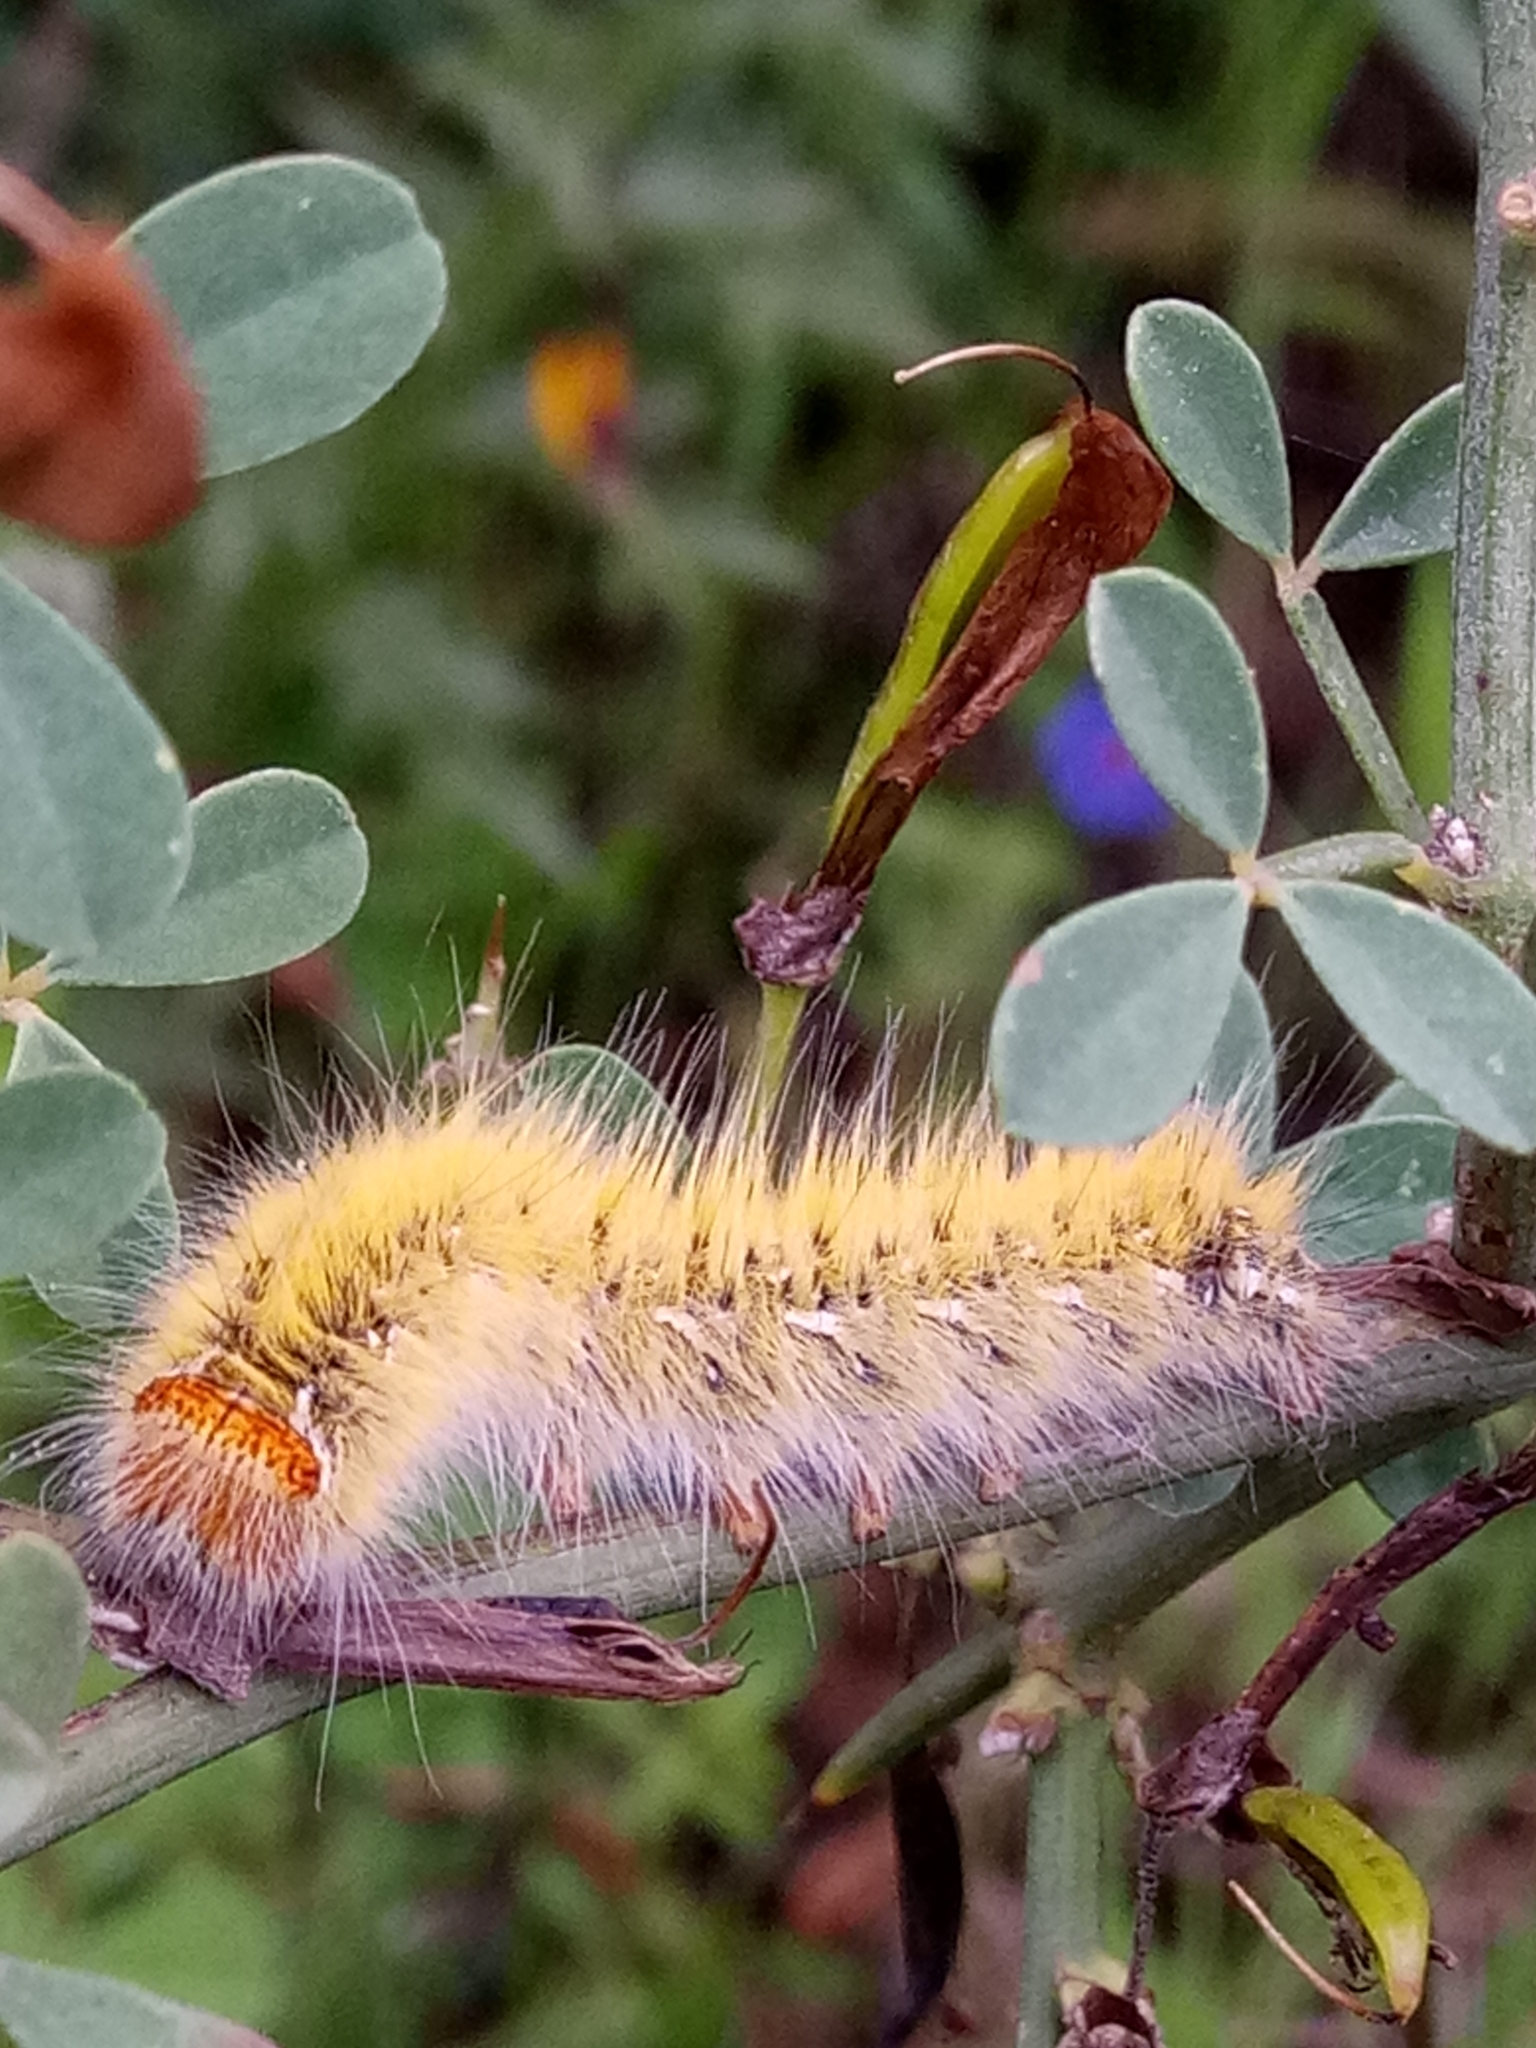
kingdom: Animalia
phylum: Arthropoda
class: Insecta
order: Lepidoptera
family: Lasiocampidae
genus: Lasiocampa
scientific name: Lasiocampa trifolii
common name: Grass eggar
